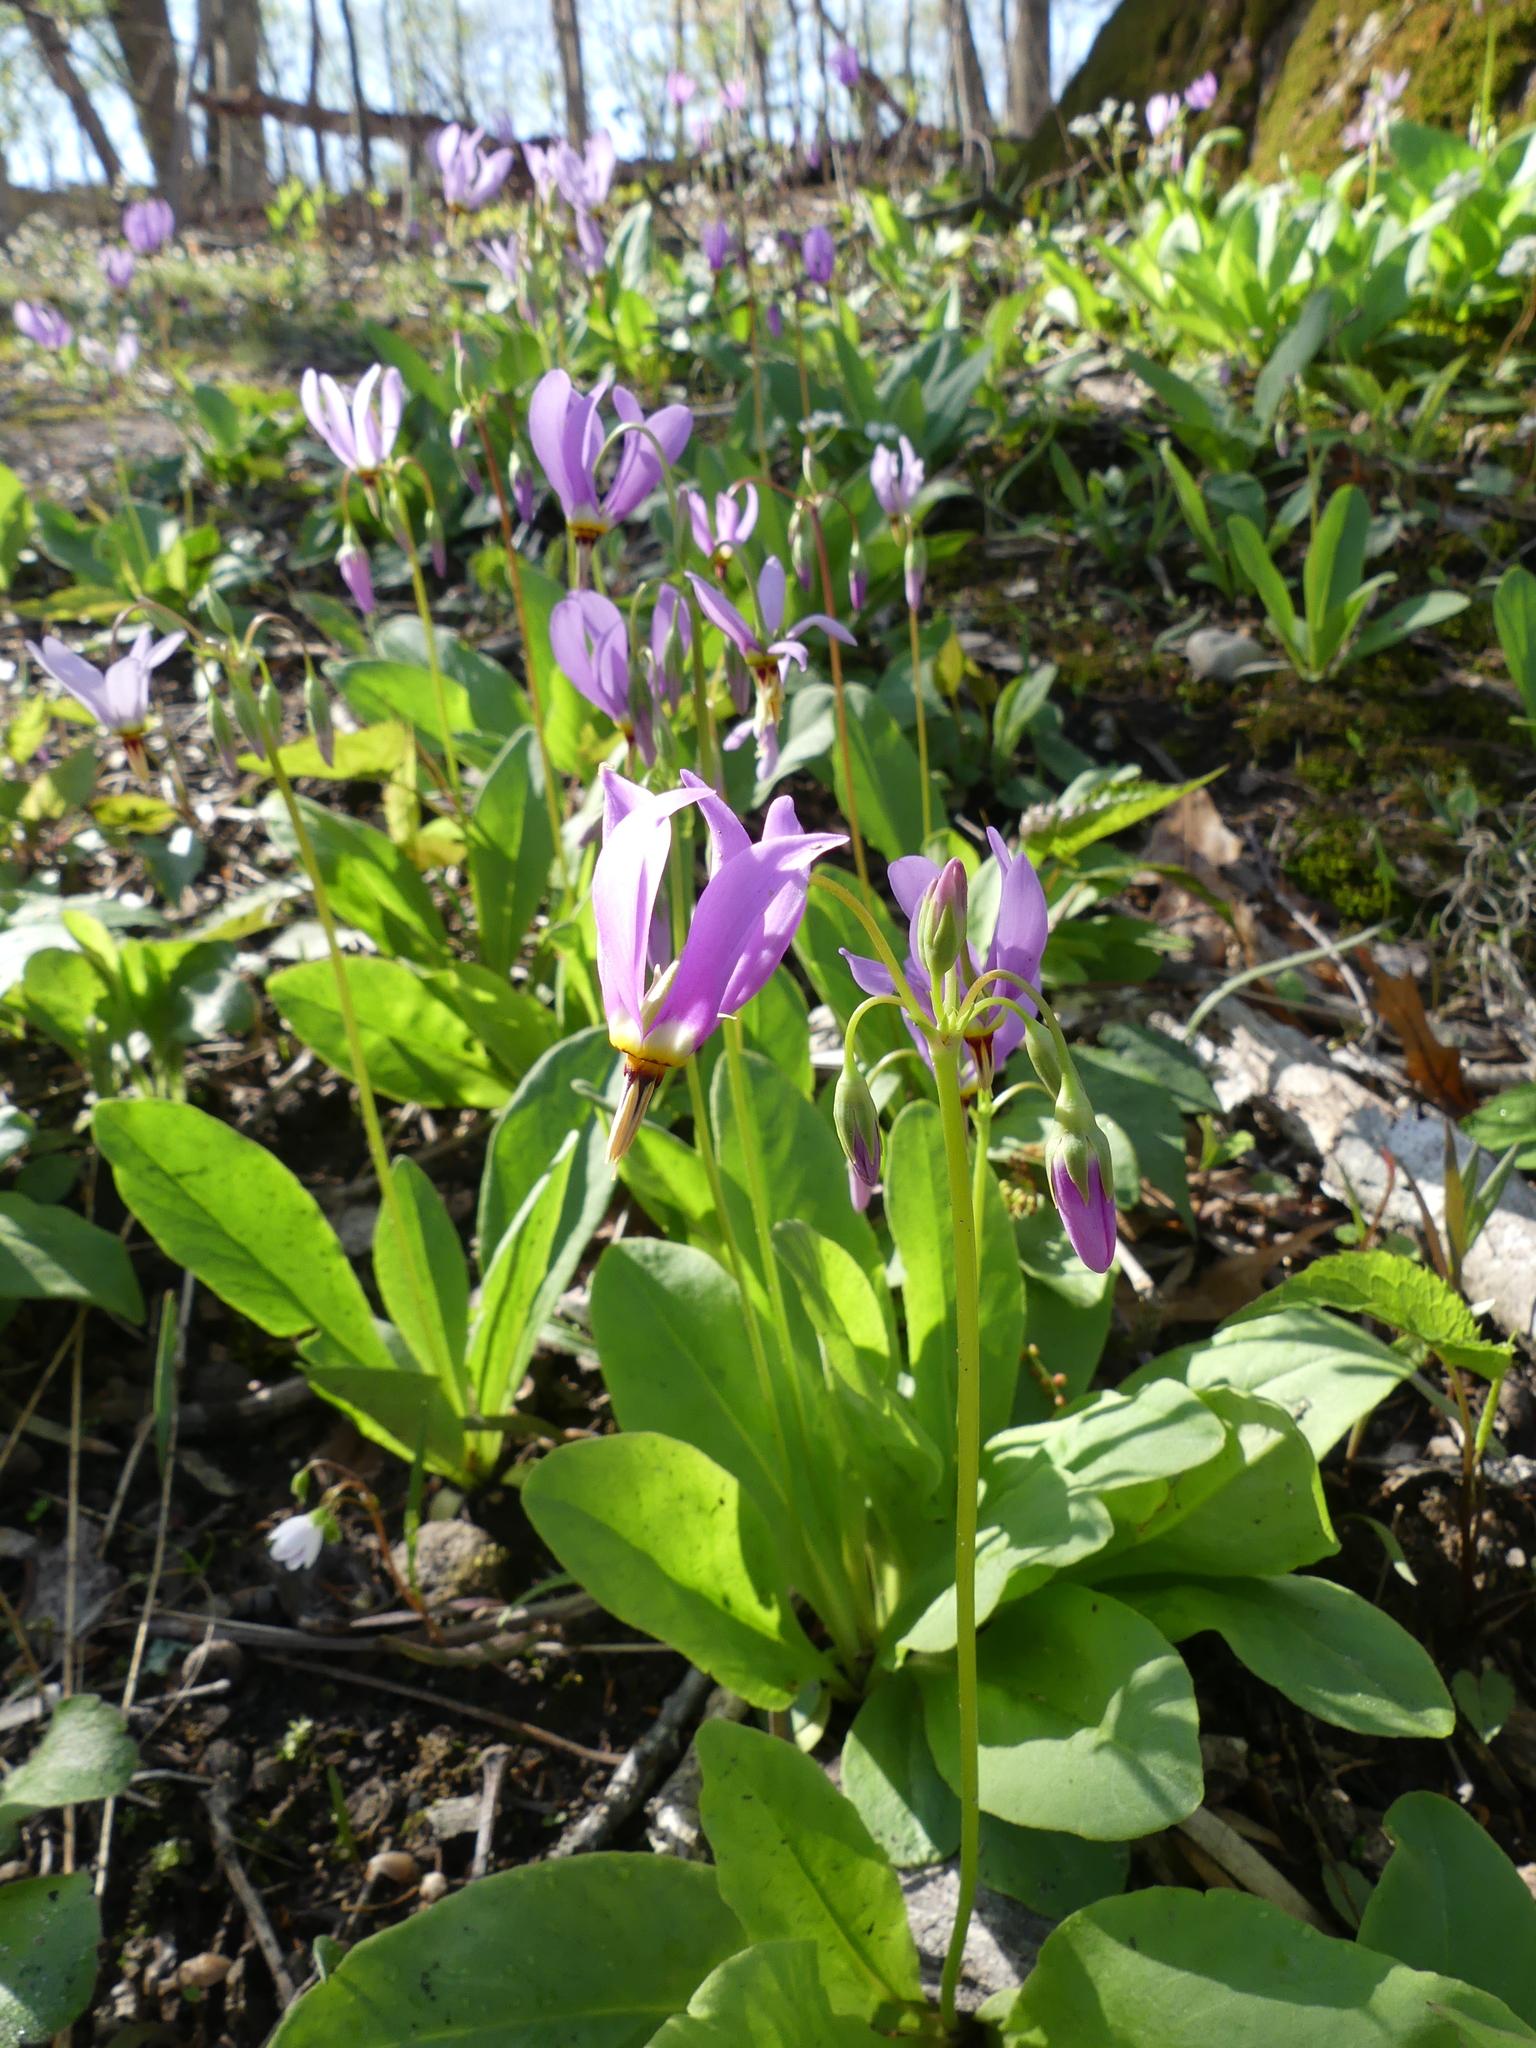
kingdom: Plantae
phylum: Tracheophyta
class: Magnoliopsida
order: Ericales
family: Primulaceae
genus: Dodecatheon
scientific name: Dodecatheon meadia
